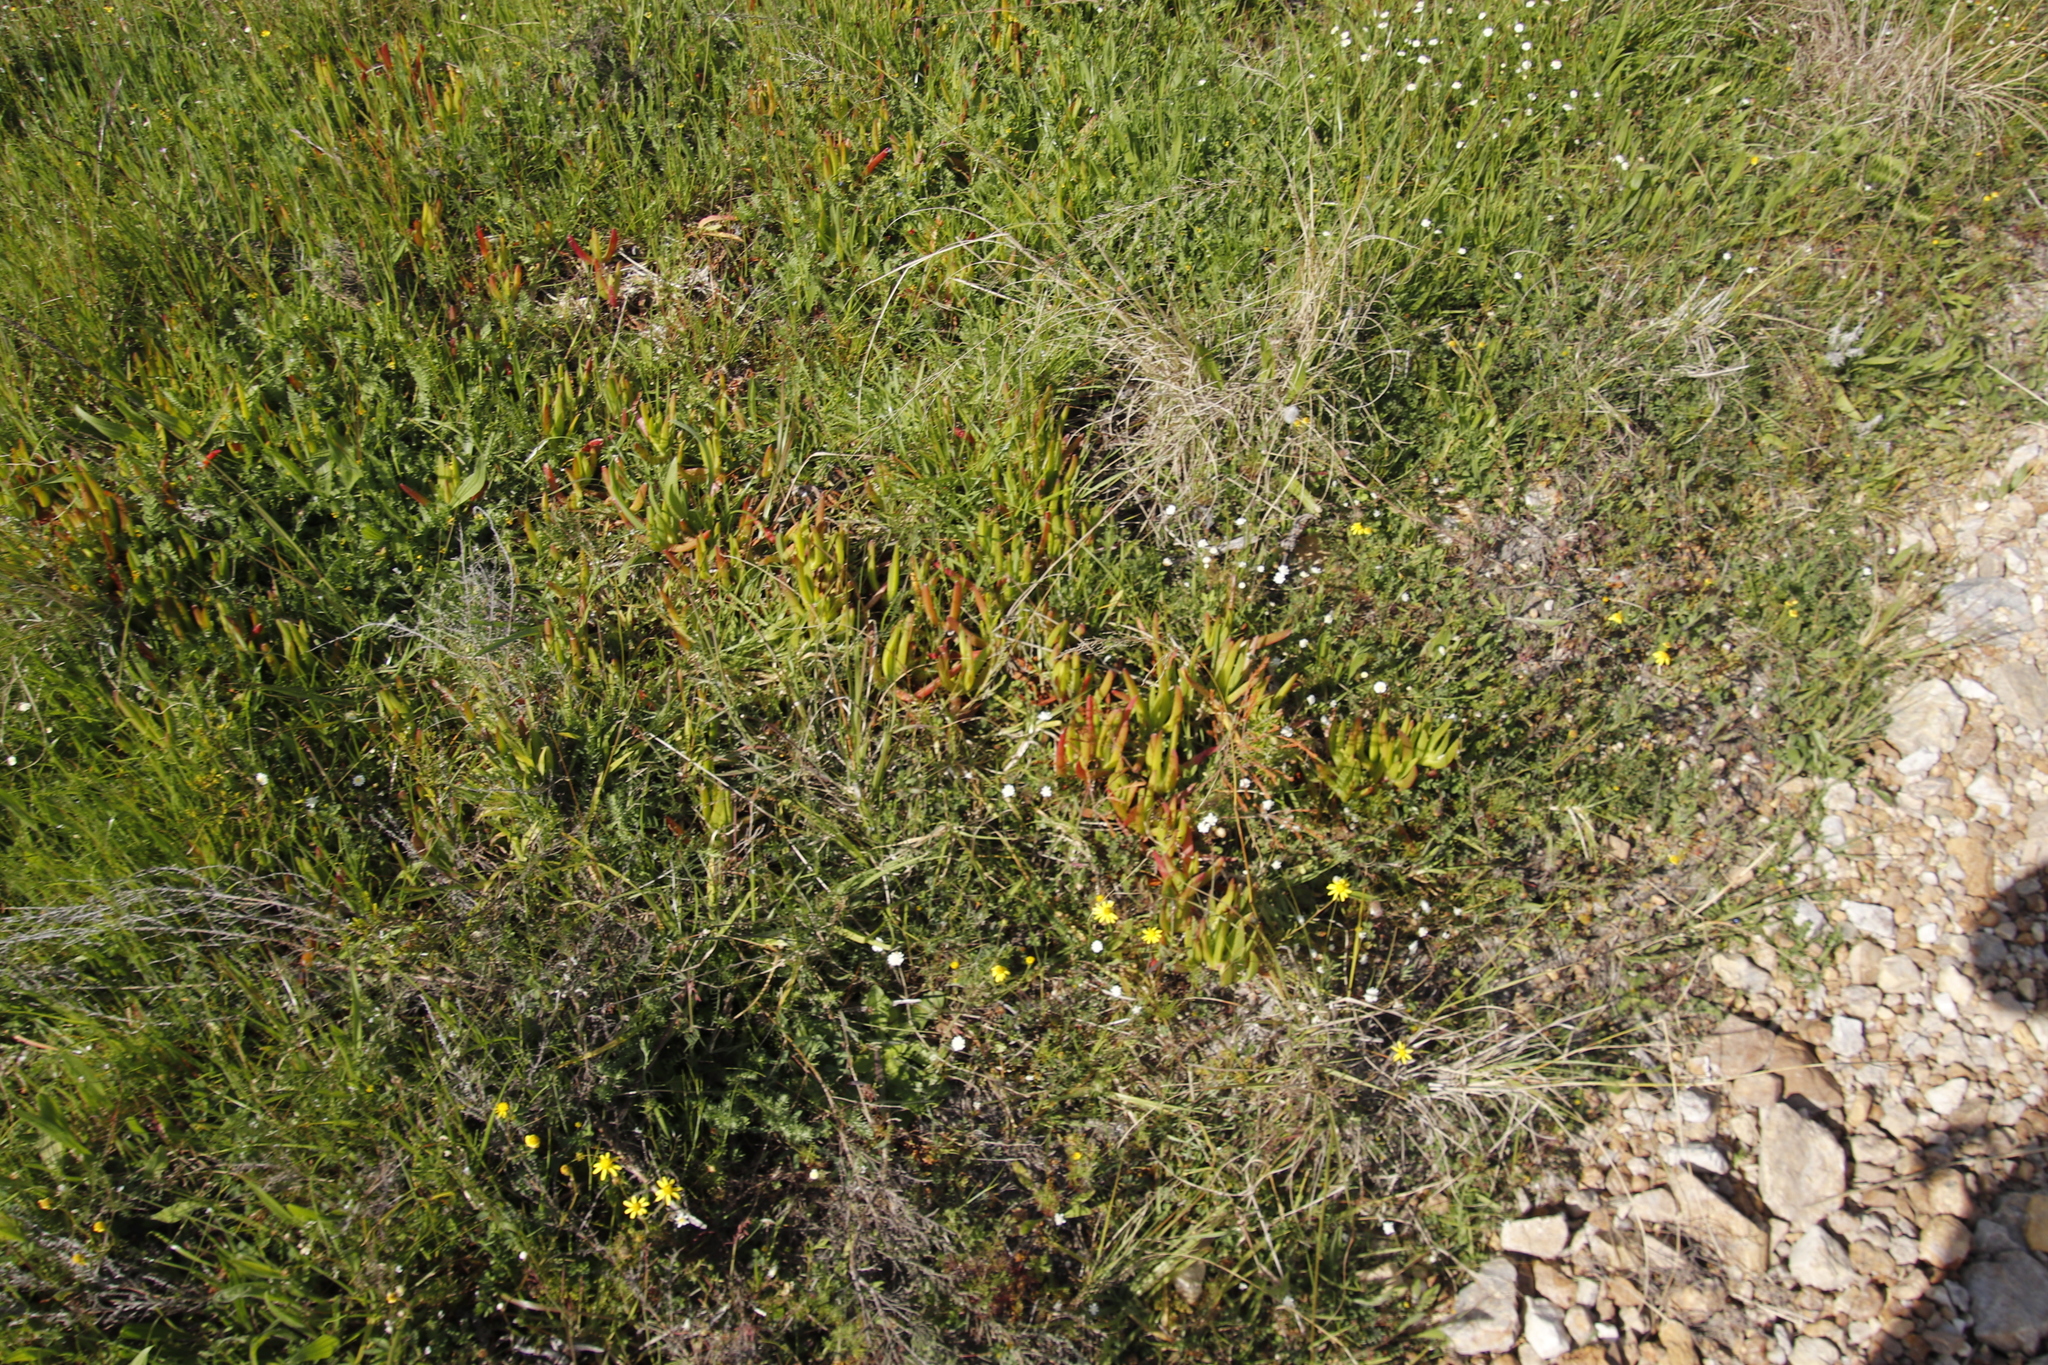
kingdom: Plantae
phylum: Tracheophyta
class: Magnoliopsida
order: Caryophyllales
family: Aizoaceae
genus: Carpobrotus
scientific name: Carpobrotus edulis
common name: Hottentot-fig
